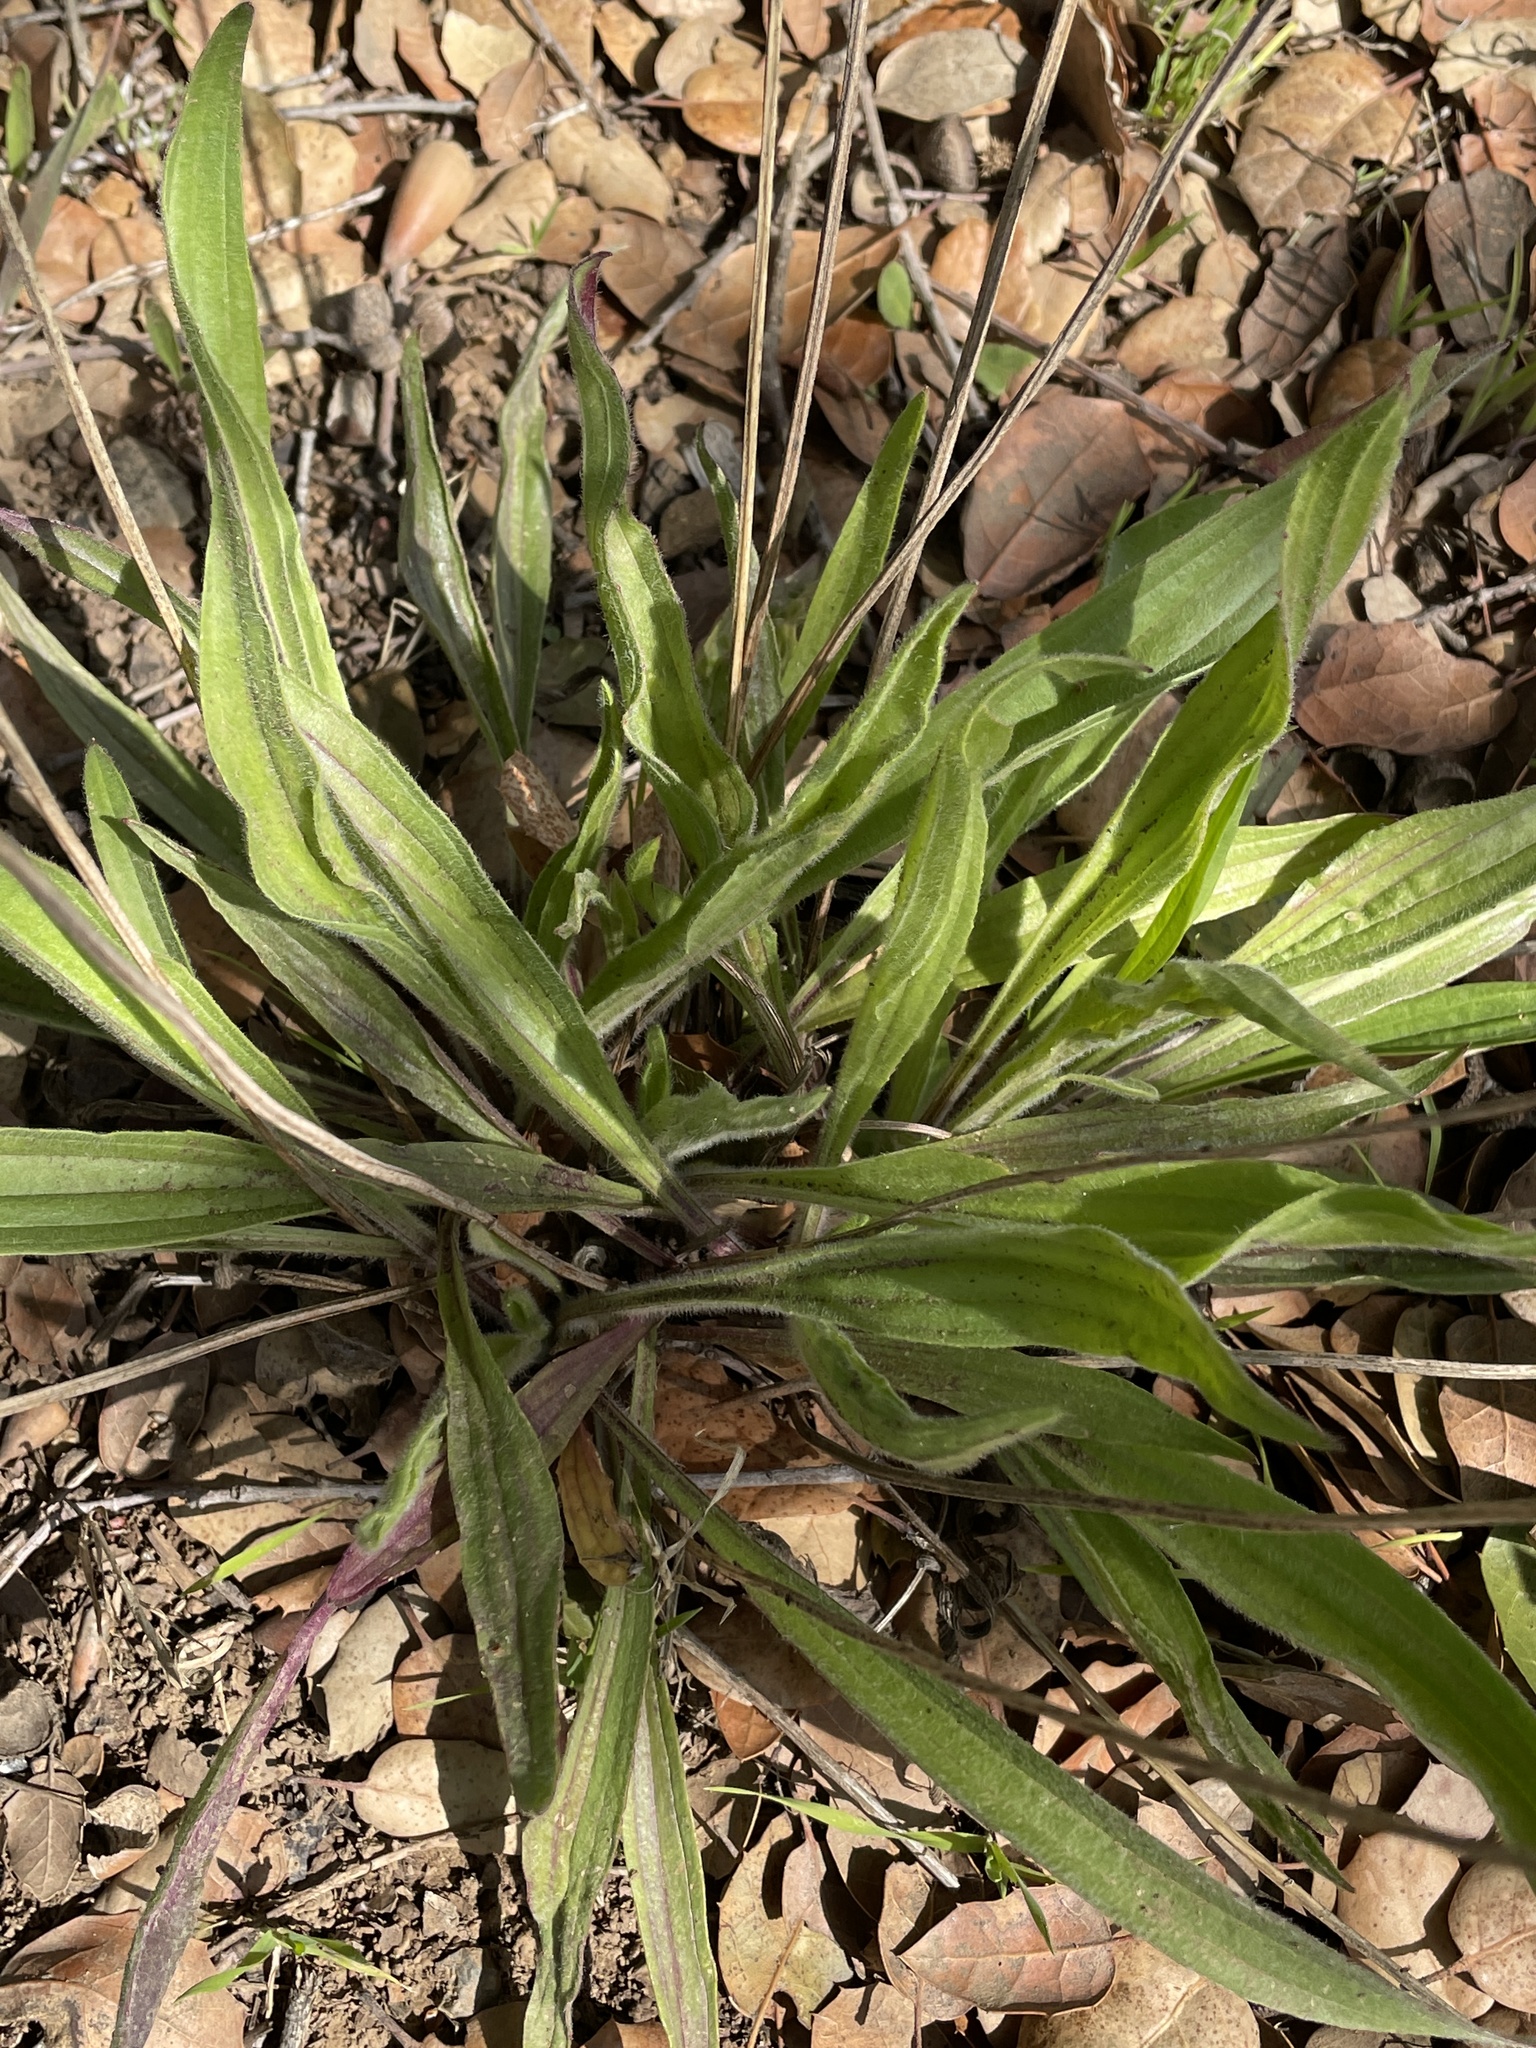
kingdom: Plantae
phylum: Tracheophyta
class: Magnoliopsida
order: Lamiales
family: Plantaginaceae
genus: Plantago
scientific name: Plantago lanceolata
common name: Ribwort plantain
